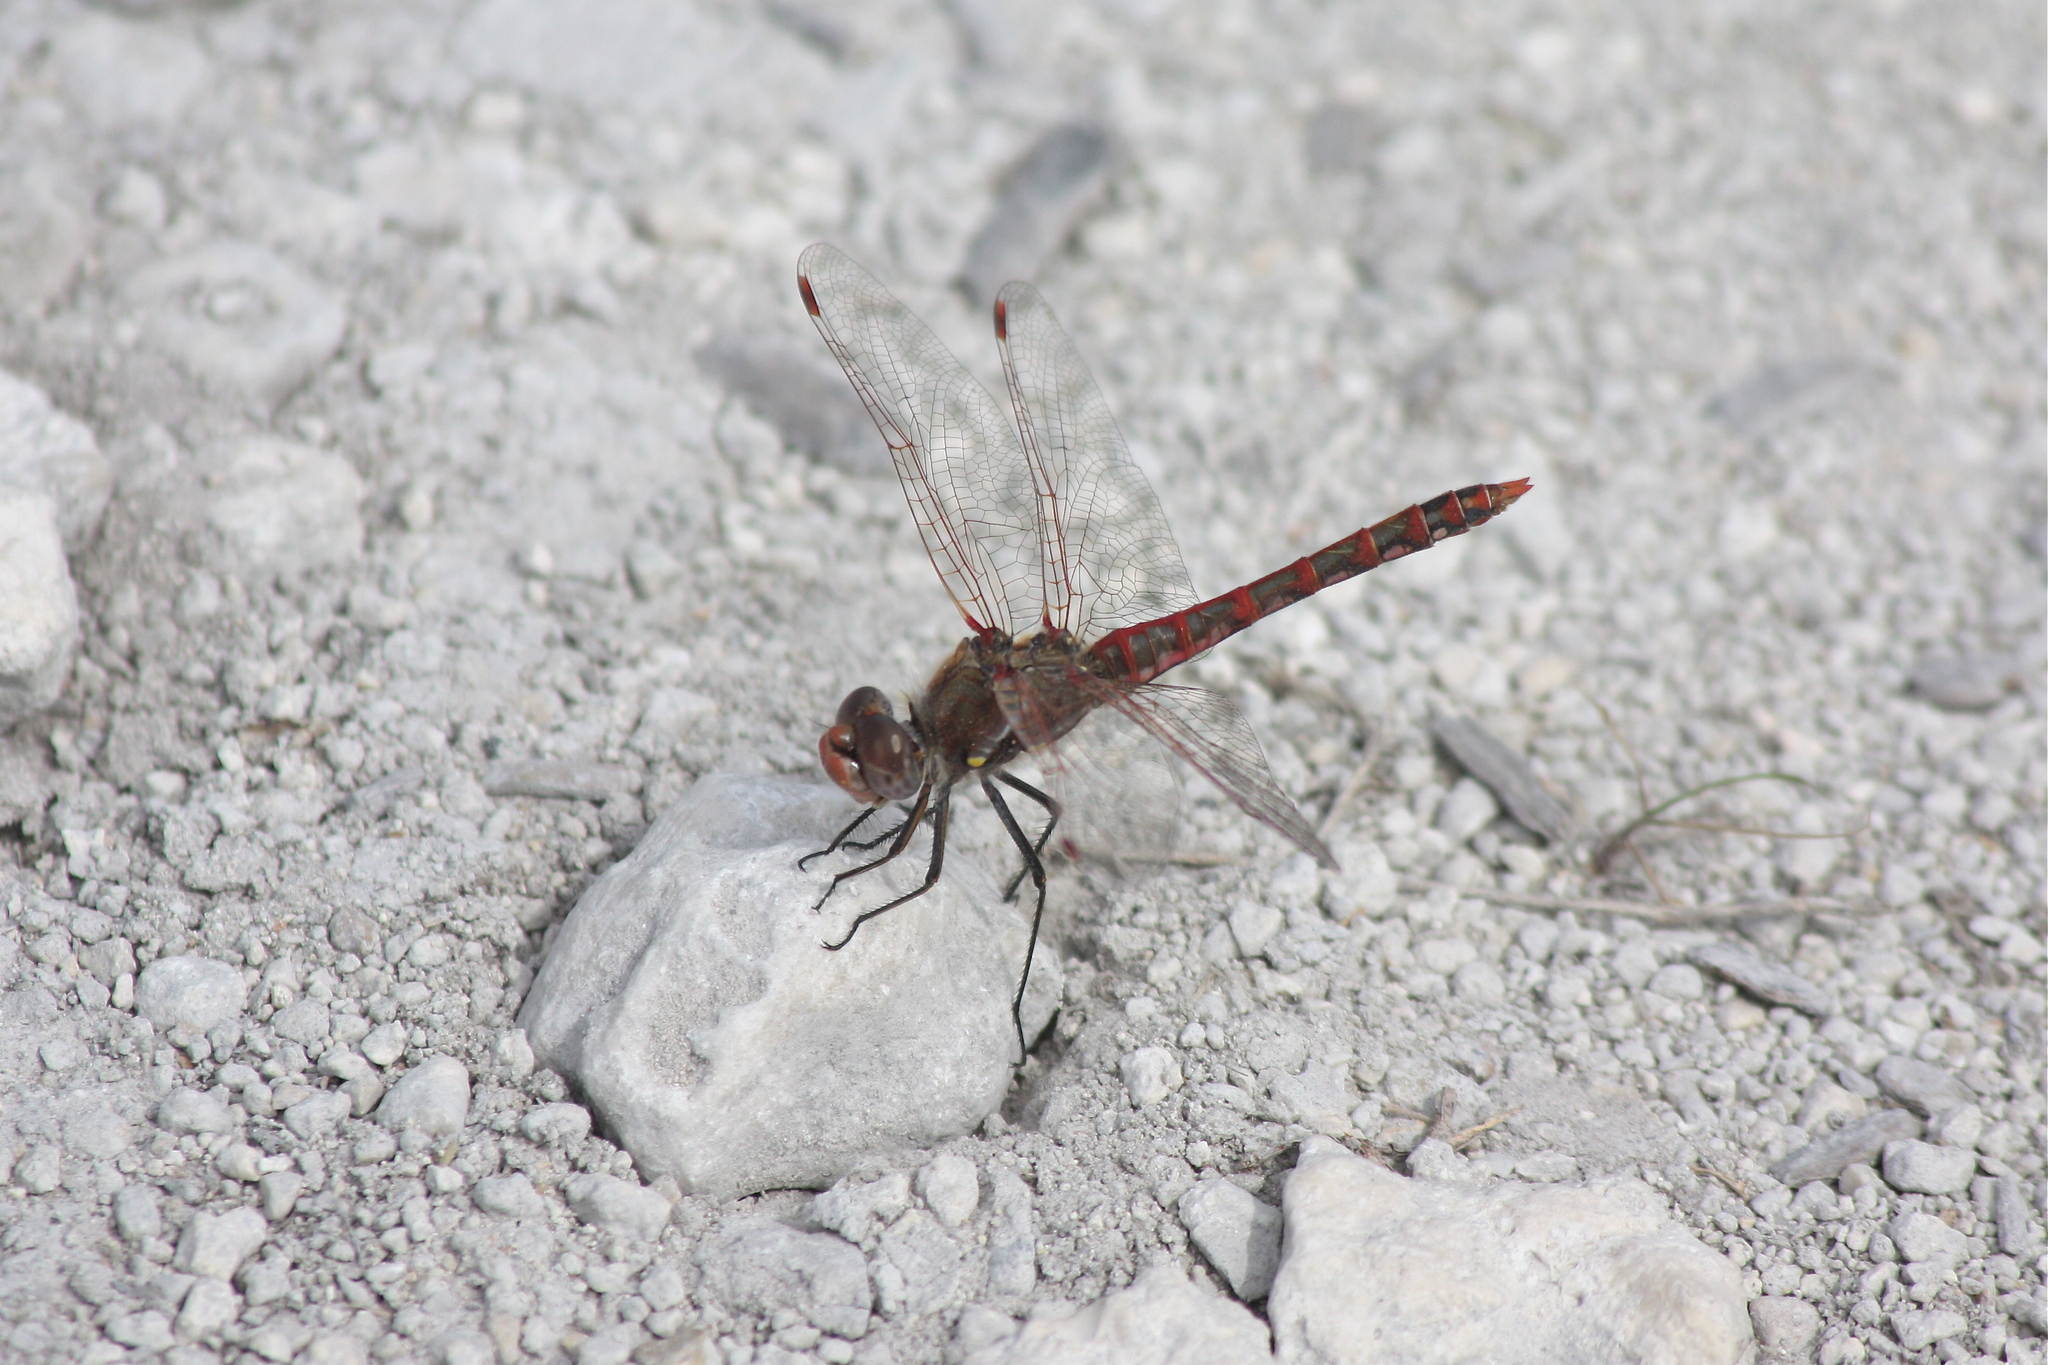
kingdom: Animalia
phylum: Arthropoda
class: Insecta
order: Odonata
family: Libellulidae
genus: Sympetrum
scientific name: Sympetrum corruptum
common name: Variegated meadowhawk
